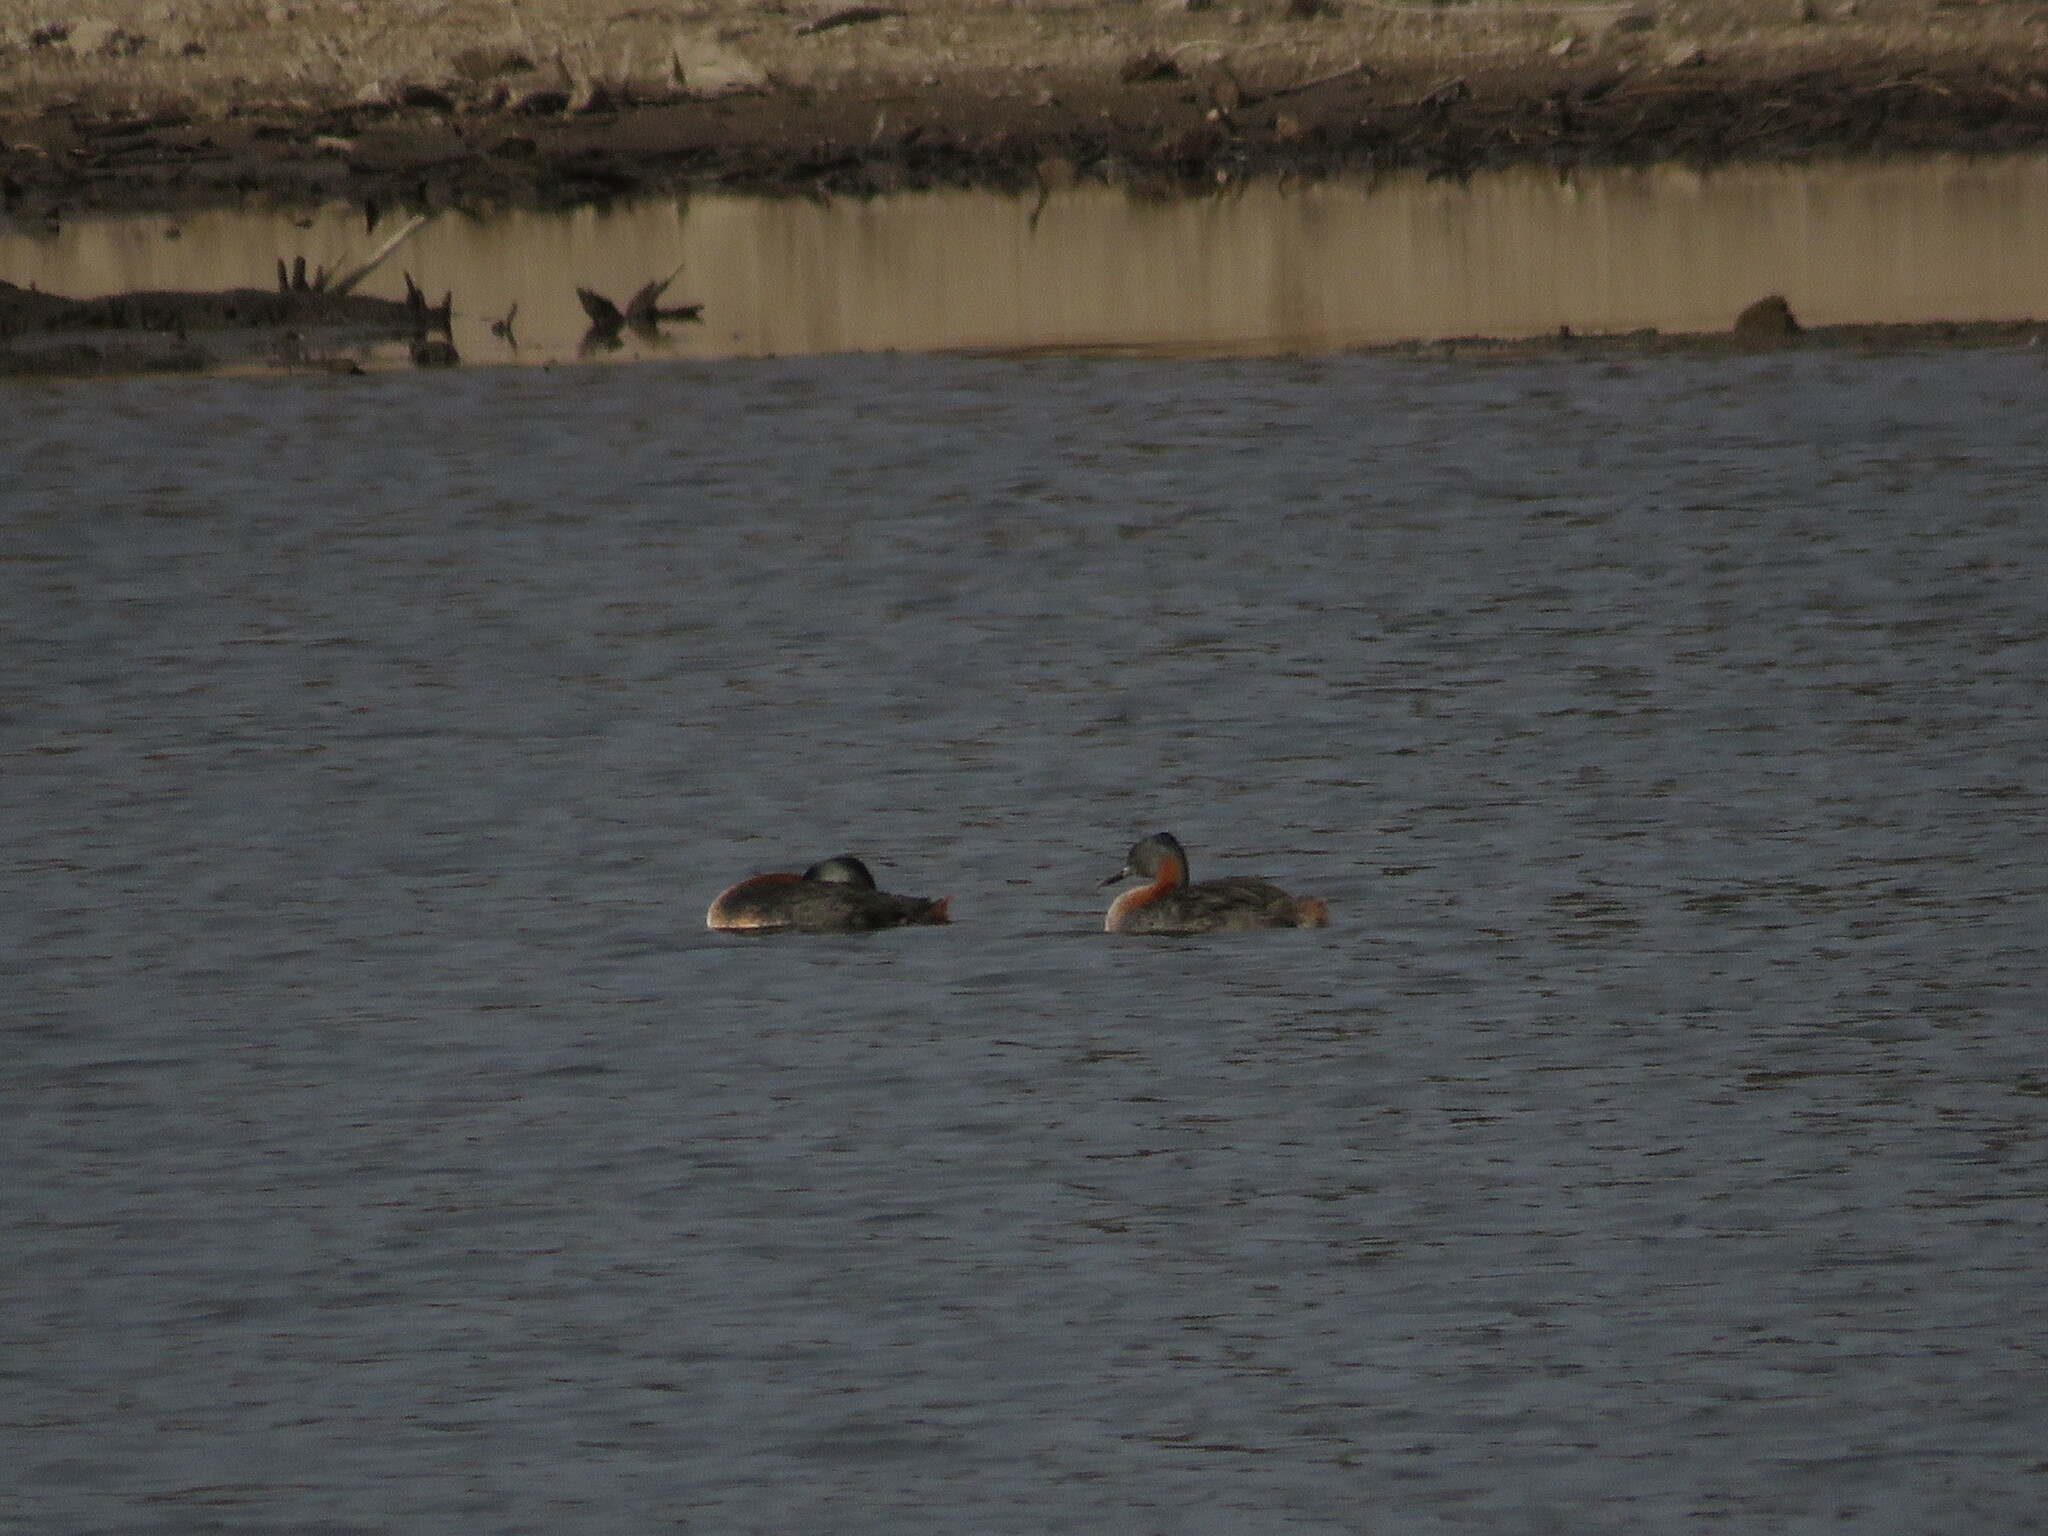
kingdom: Animalia
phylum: Chordata
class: Aves
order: Podicipediformes
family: Podicipedidae
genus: Podiceps
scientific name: Podiceps major
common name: Great grebe
